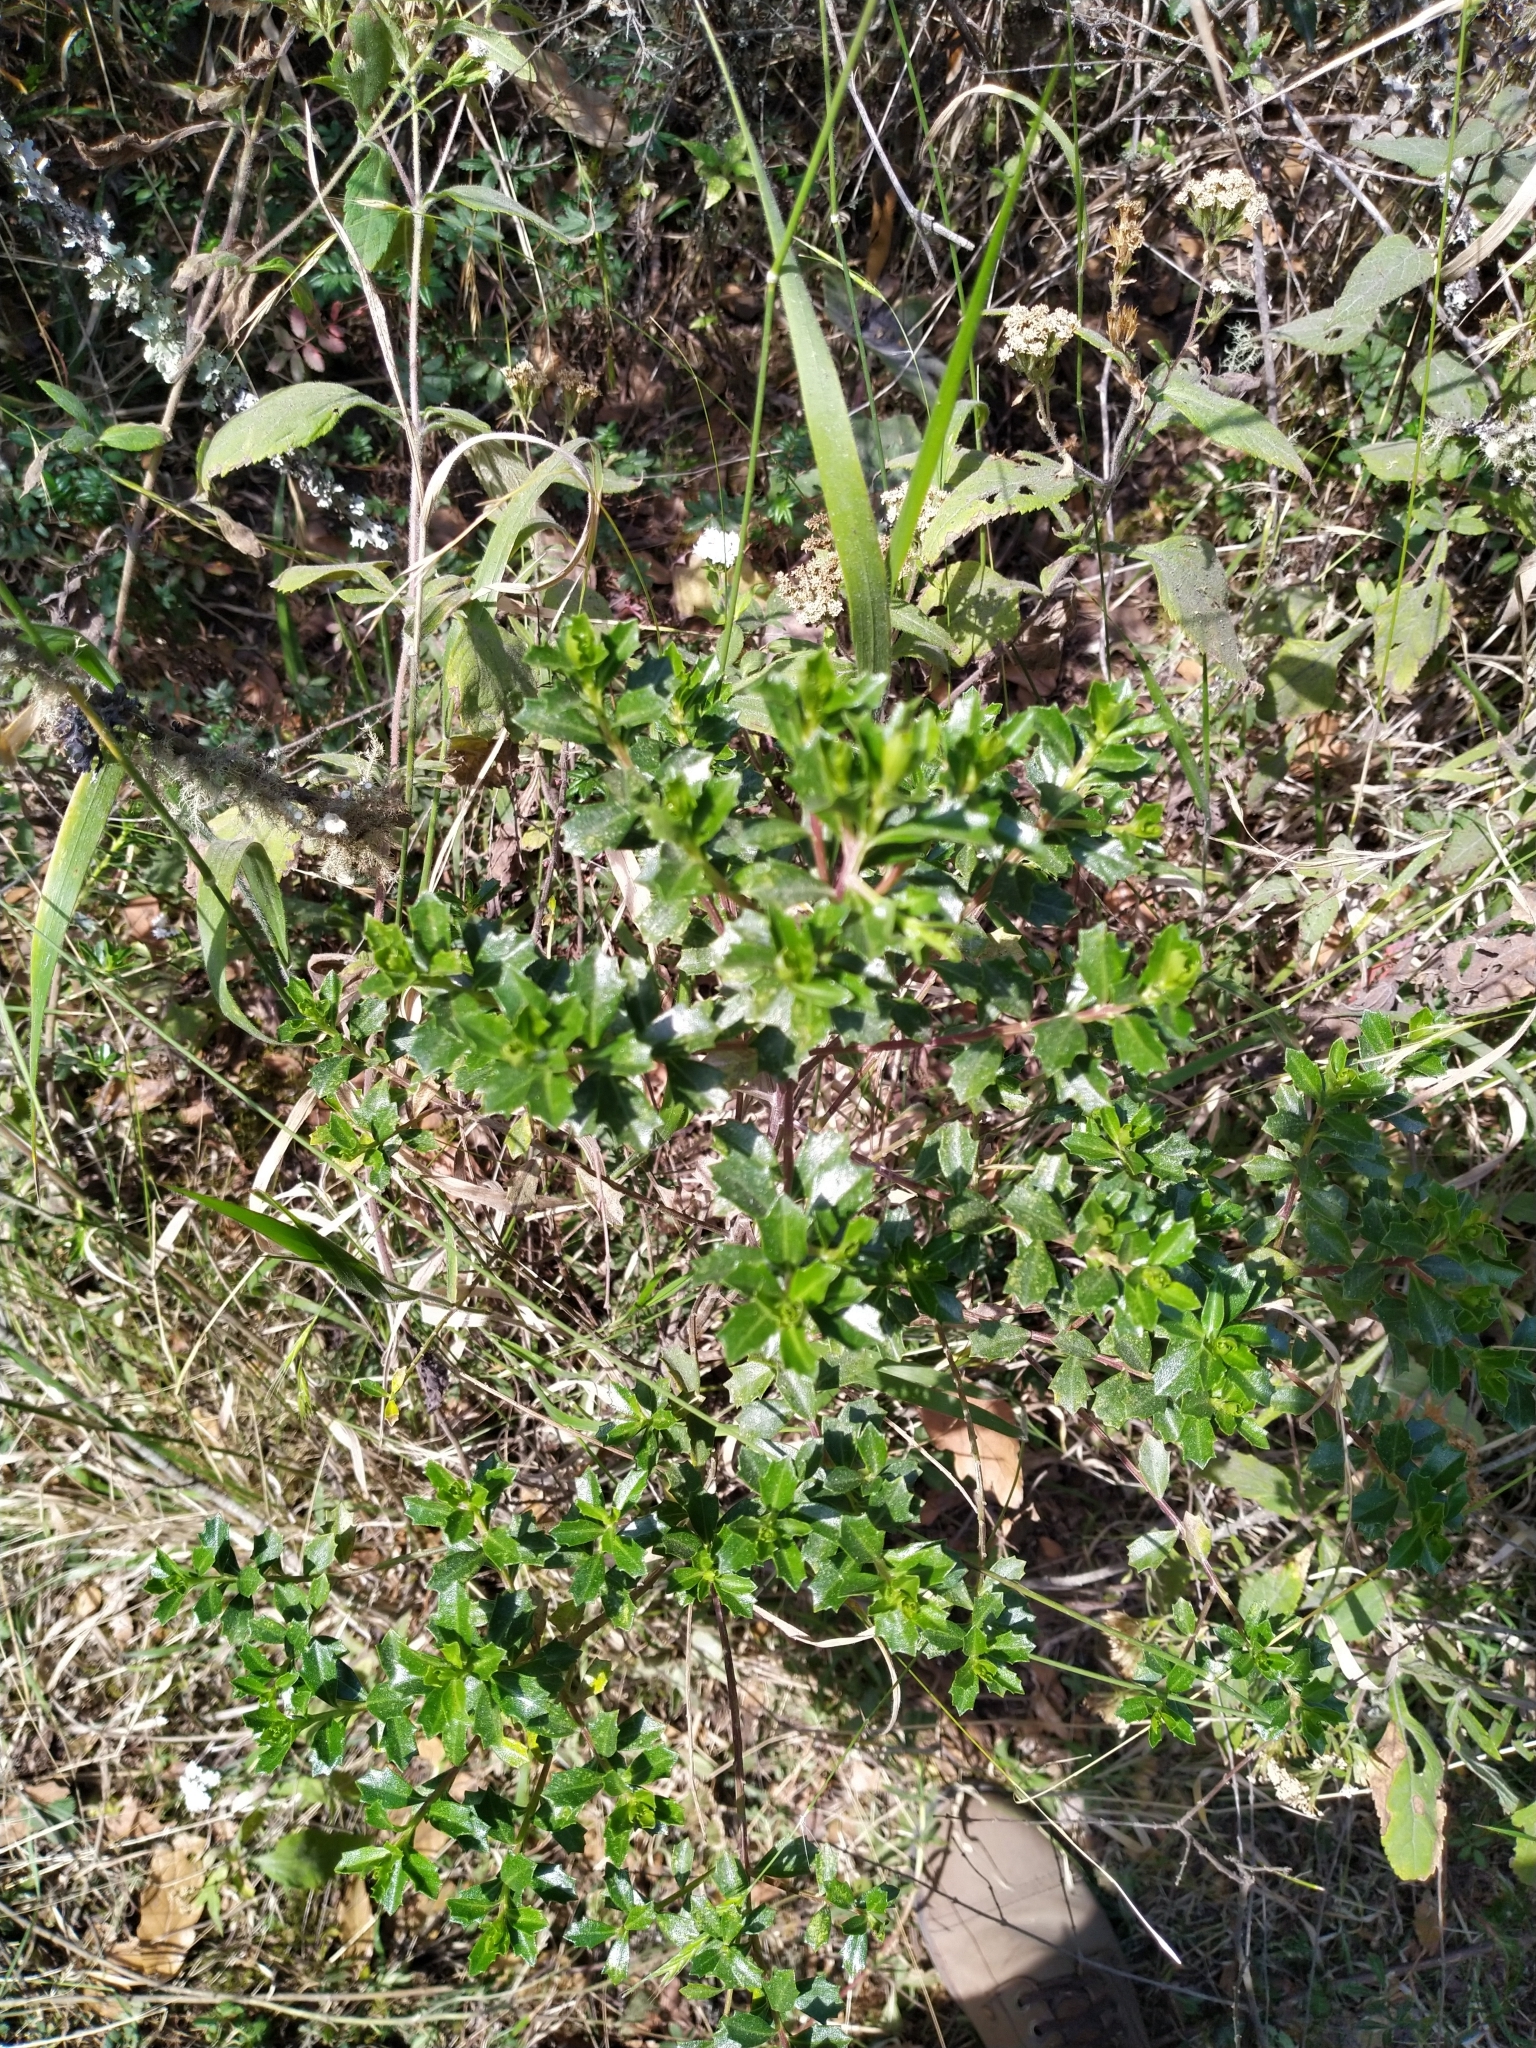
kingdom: Plantae
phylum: Tracheophyta
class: Magnoliopsida
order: Asterales
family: Asteraceae
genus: Baccharis
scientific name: Baccharis conferta
